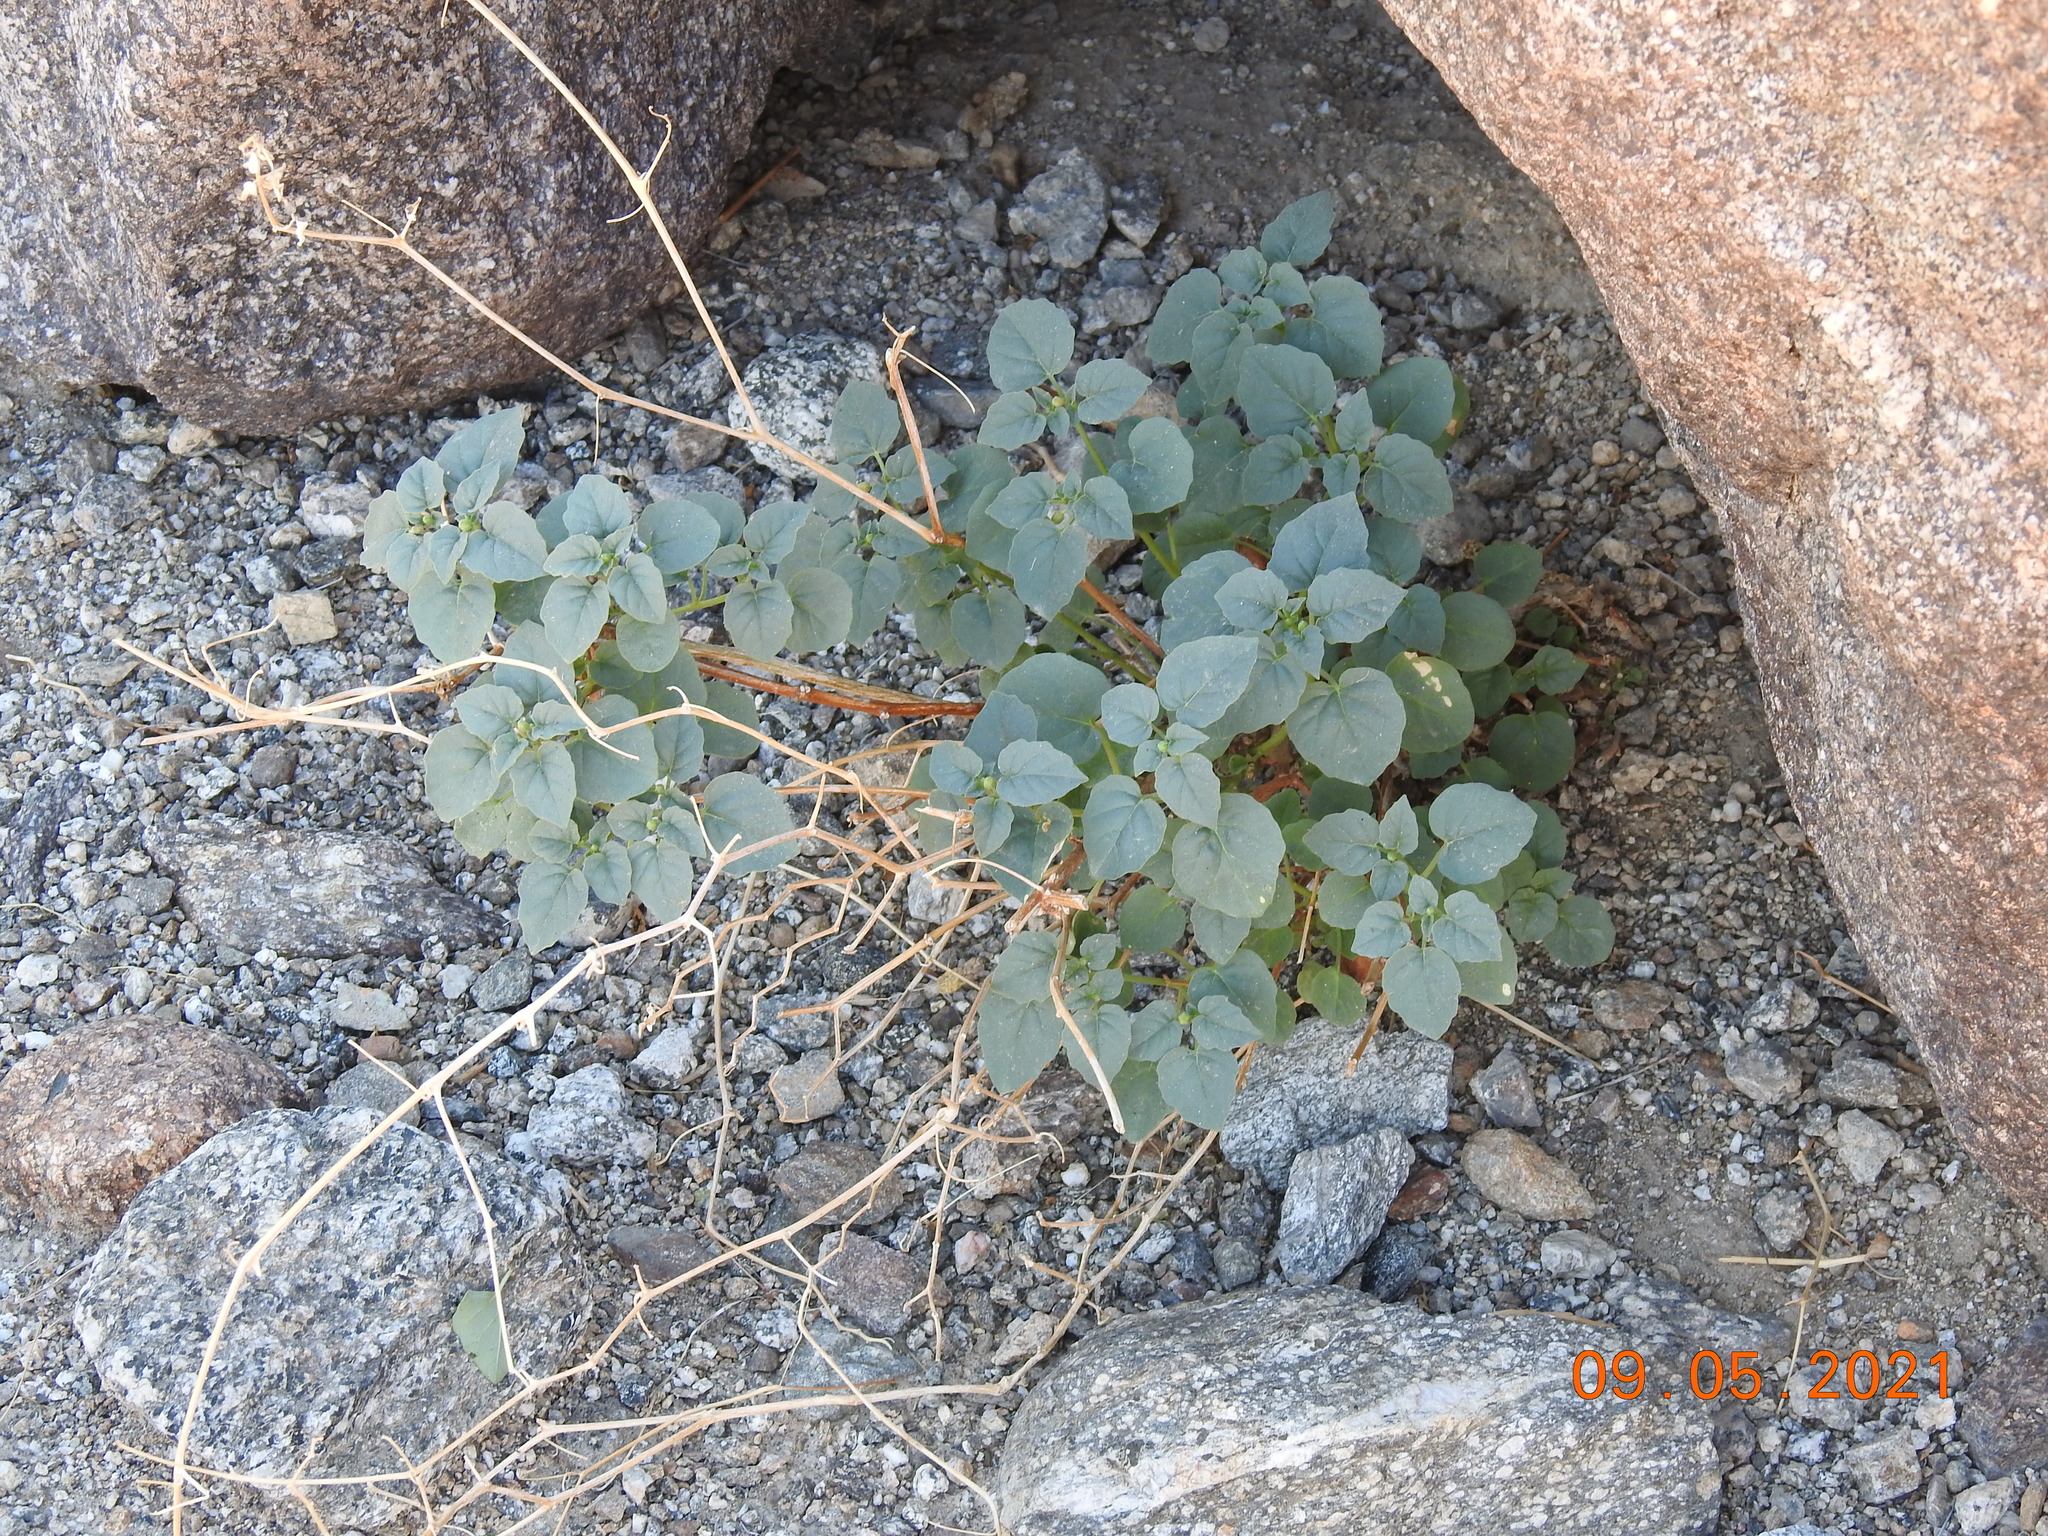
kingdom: Plantae
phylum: Tracheophyta
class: Magnoliopsida
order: Solanales
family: Solanaceae
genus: Physalis
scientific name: Physalis crassifolia
